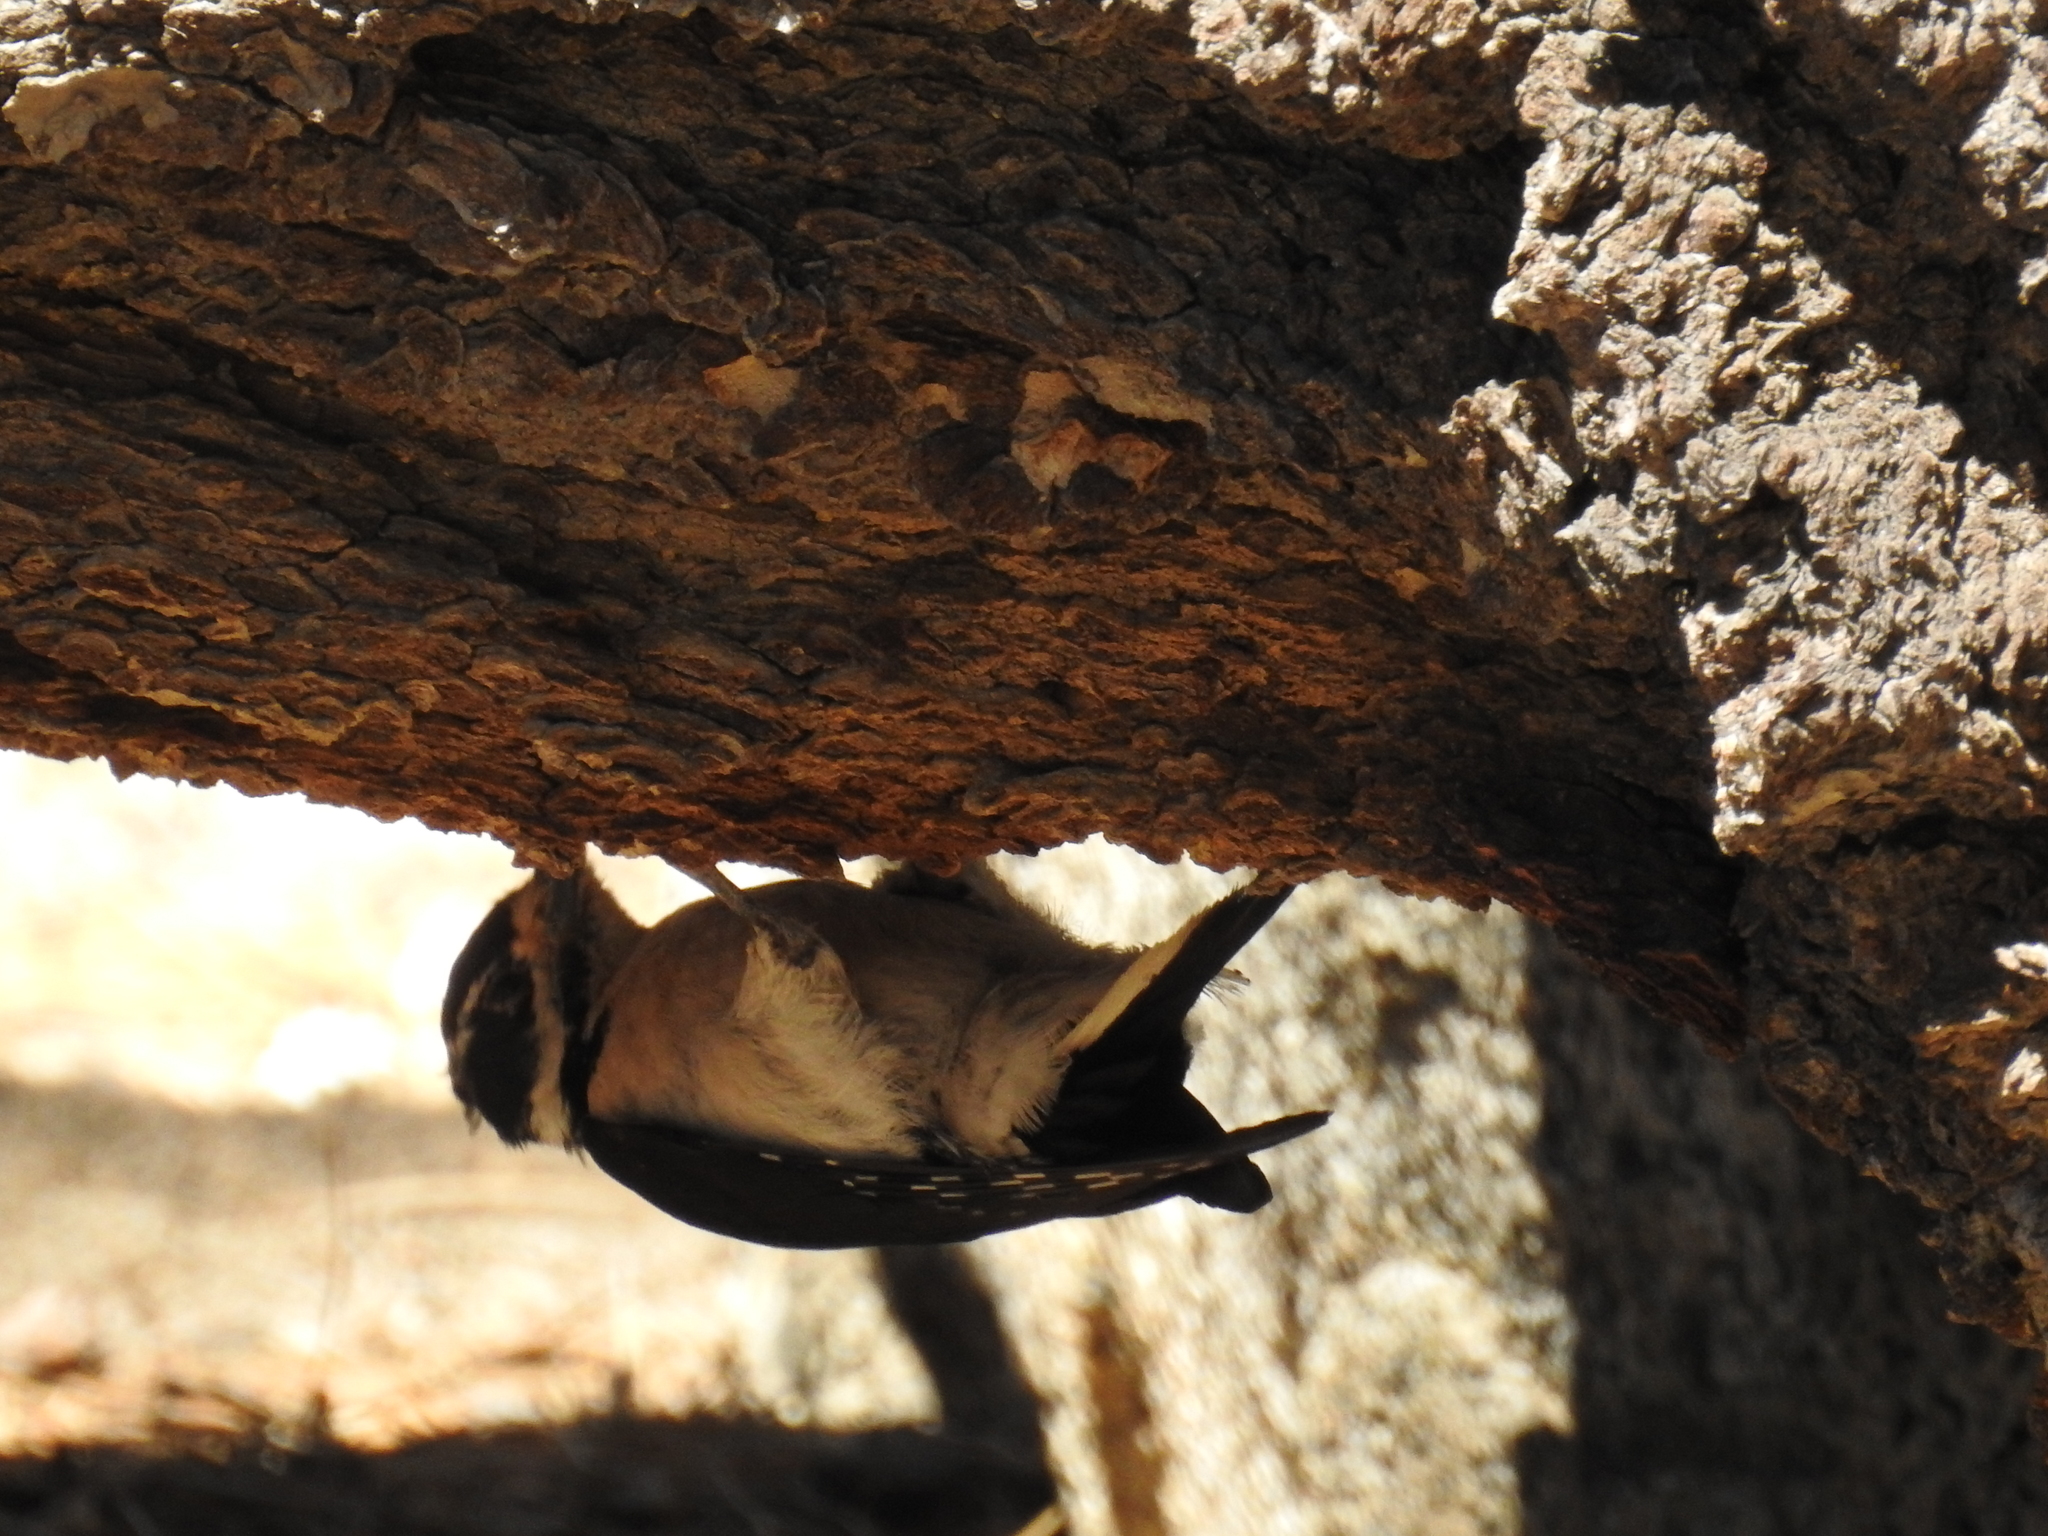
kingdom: Animalia
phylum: Chordata
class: Aves
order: Piciformes
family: Picidae
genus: Leuconotopicus
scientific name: Leuconotopicus villosus
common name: Hairy woodpecker
